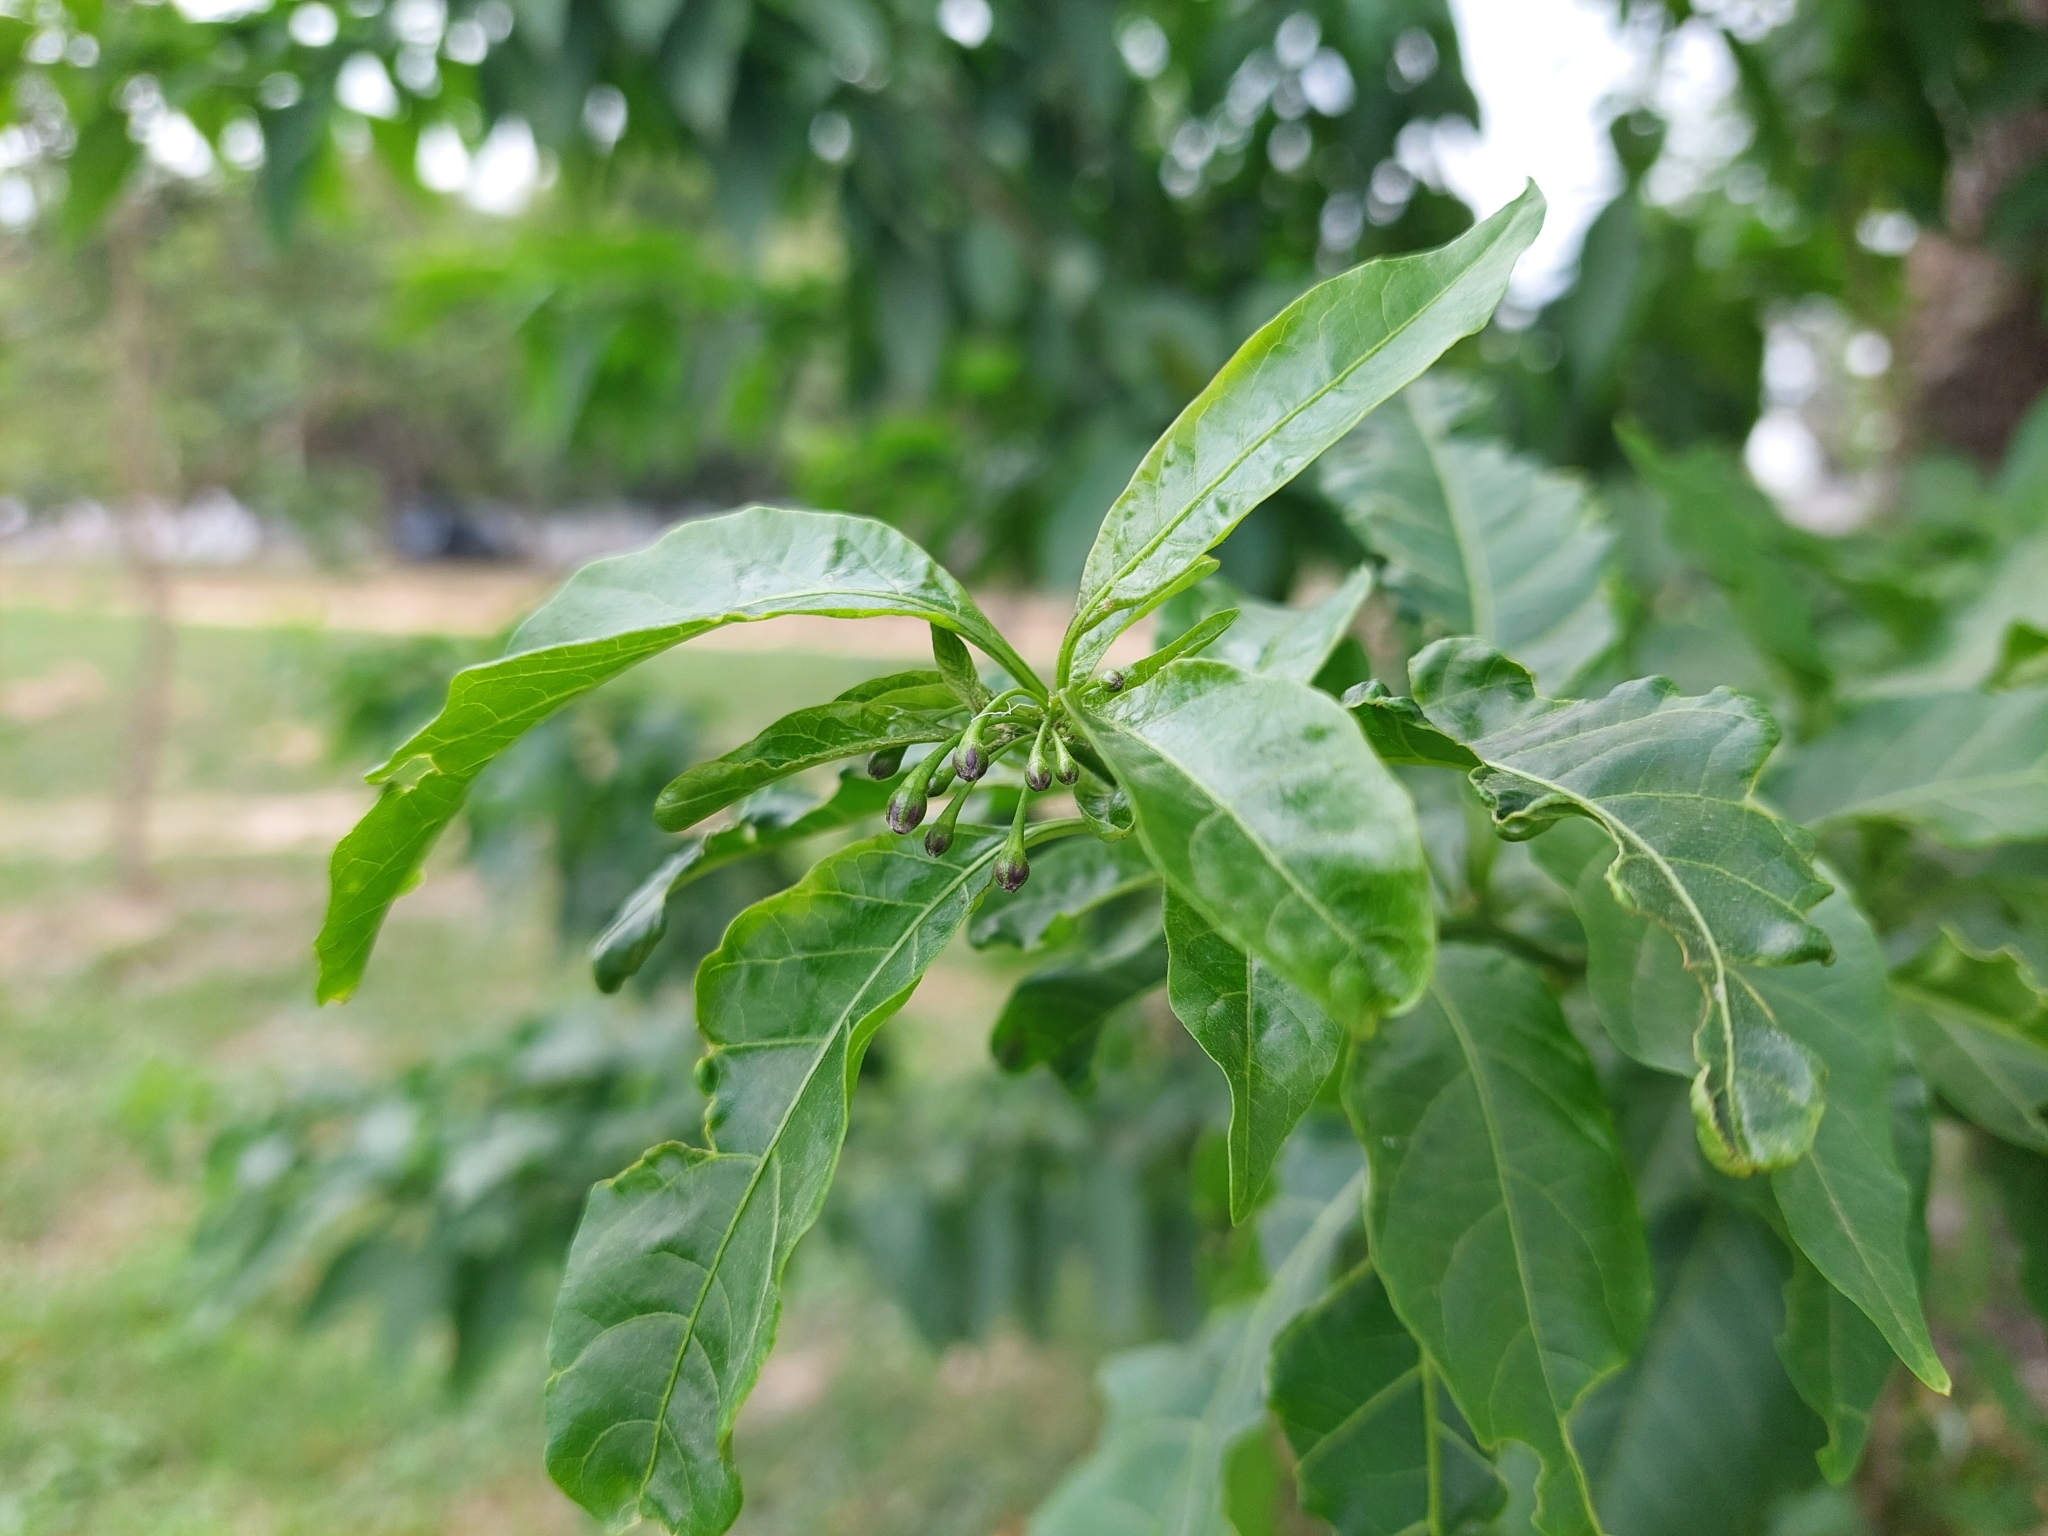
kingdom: Plantae
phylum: Tracheophyta
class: Magnoliopsida
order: Solanales
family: Solanaceae
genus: Vassobia
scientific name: Vassobia breviflora
